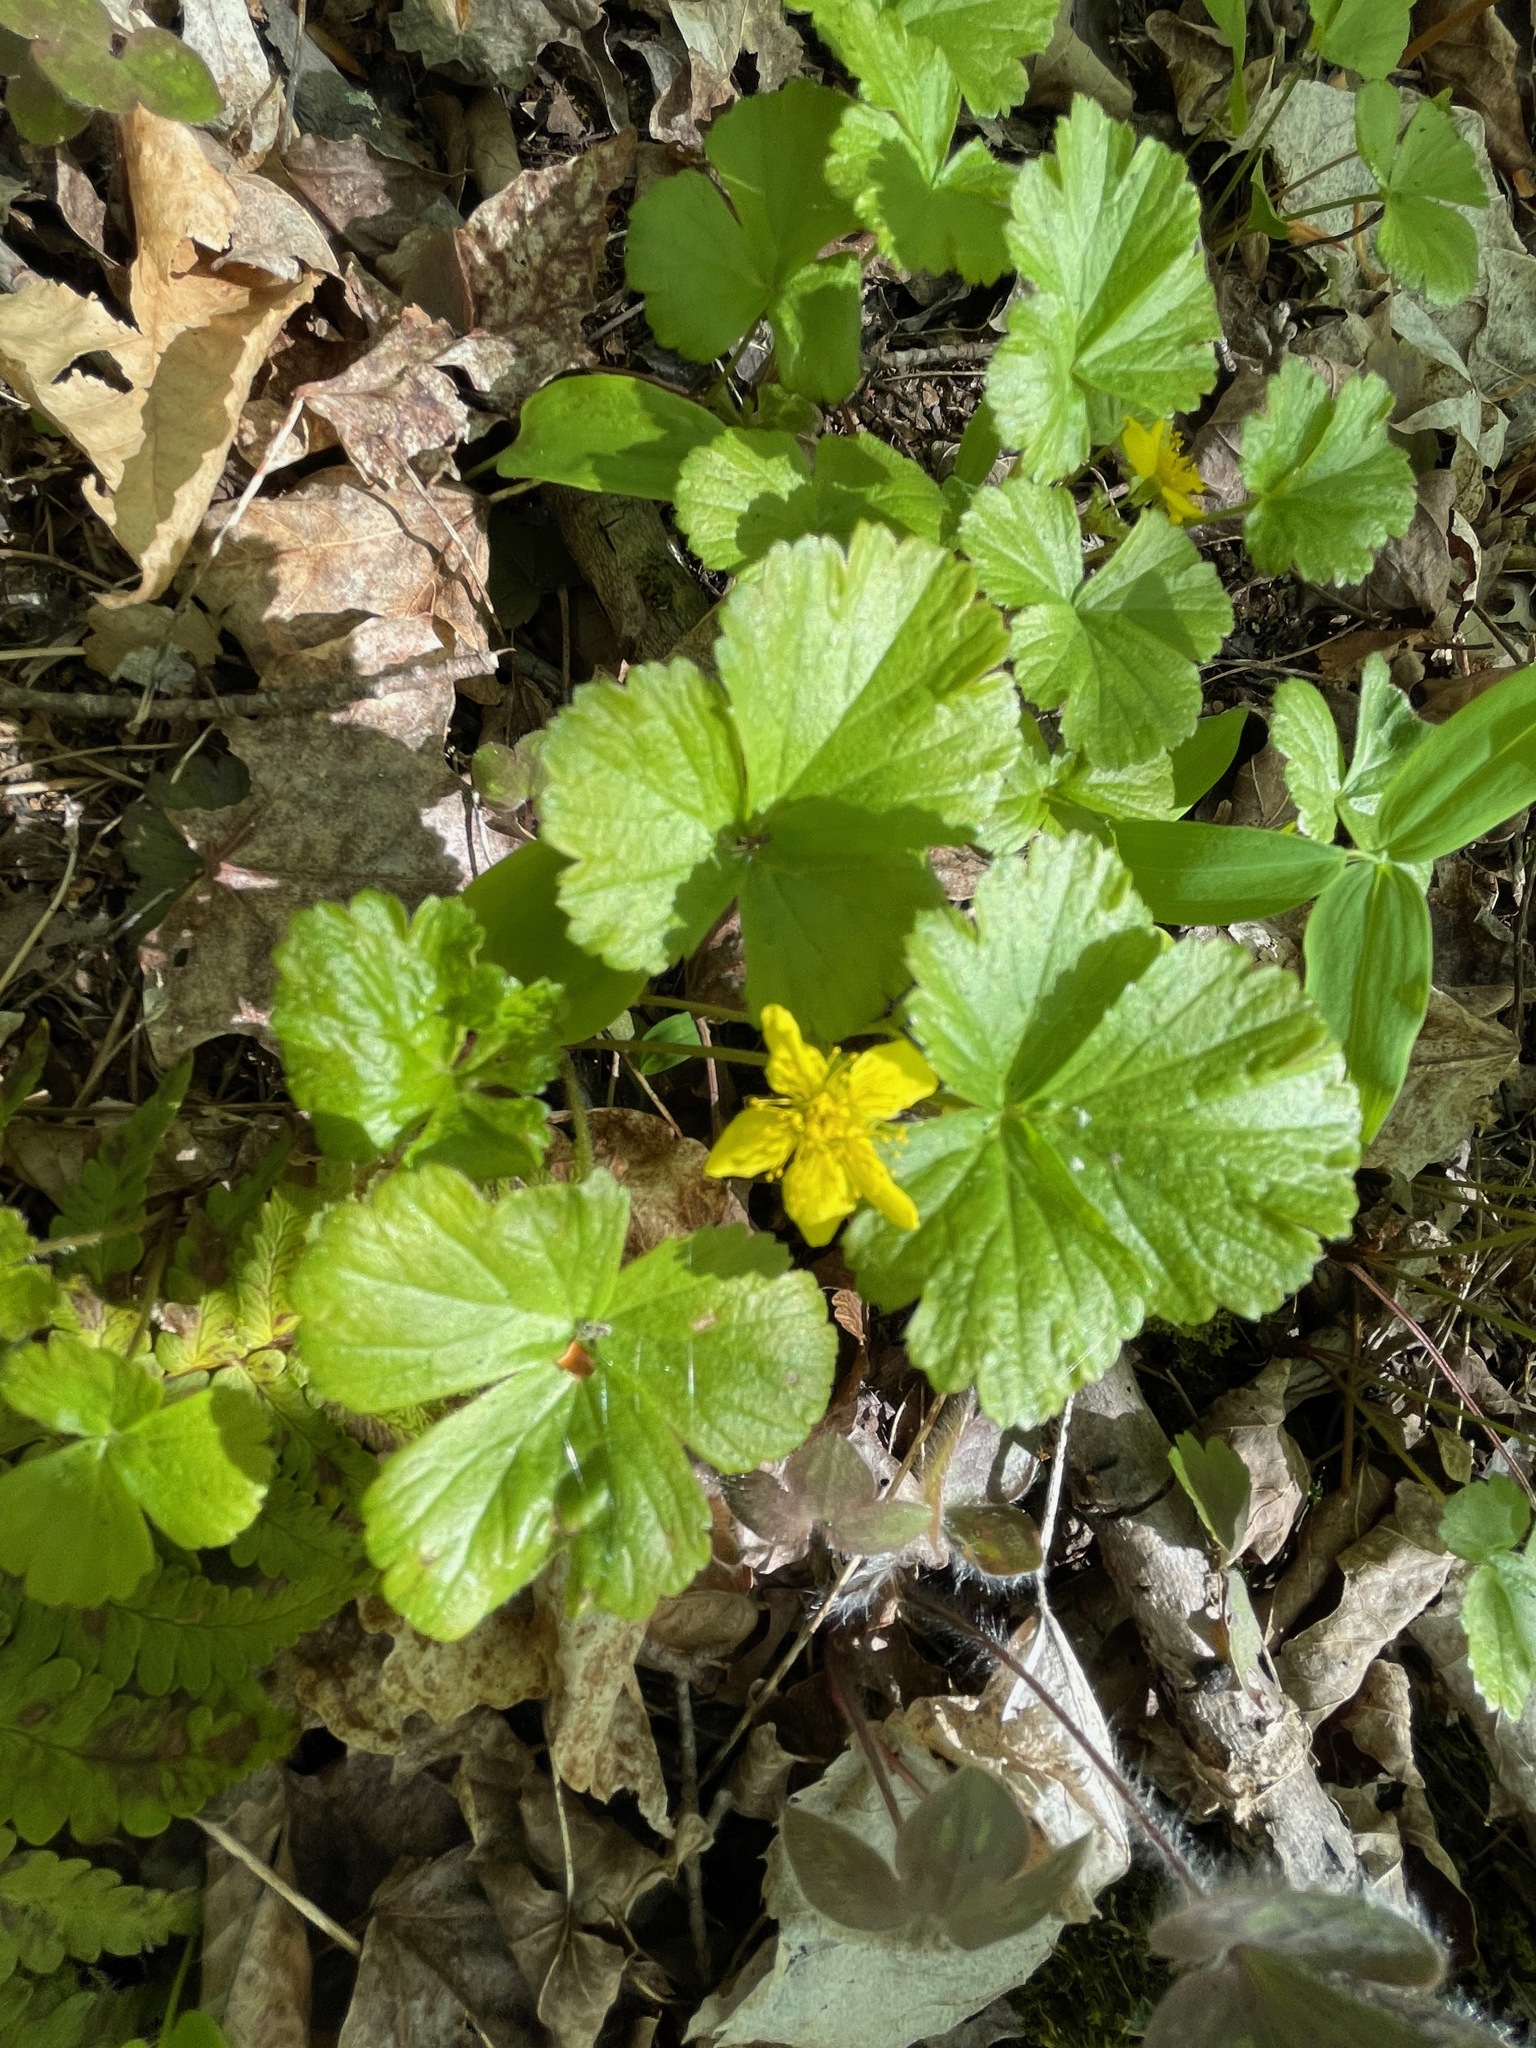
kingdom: Plantae
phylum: Tracheophyta
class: Magnoliopsida
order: Rosales
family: Rosaceae
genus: Geum
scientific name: Geum fragarioides
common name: Appalachian barren strawberry
